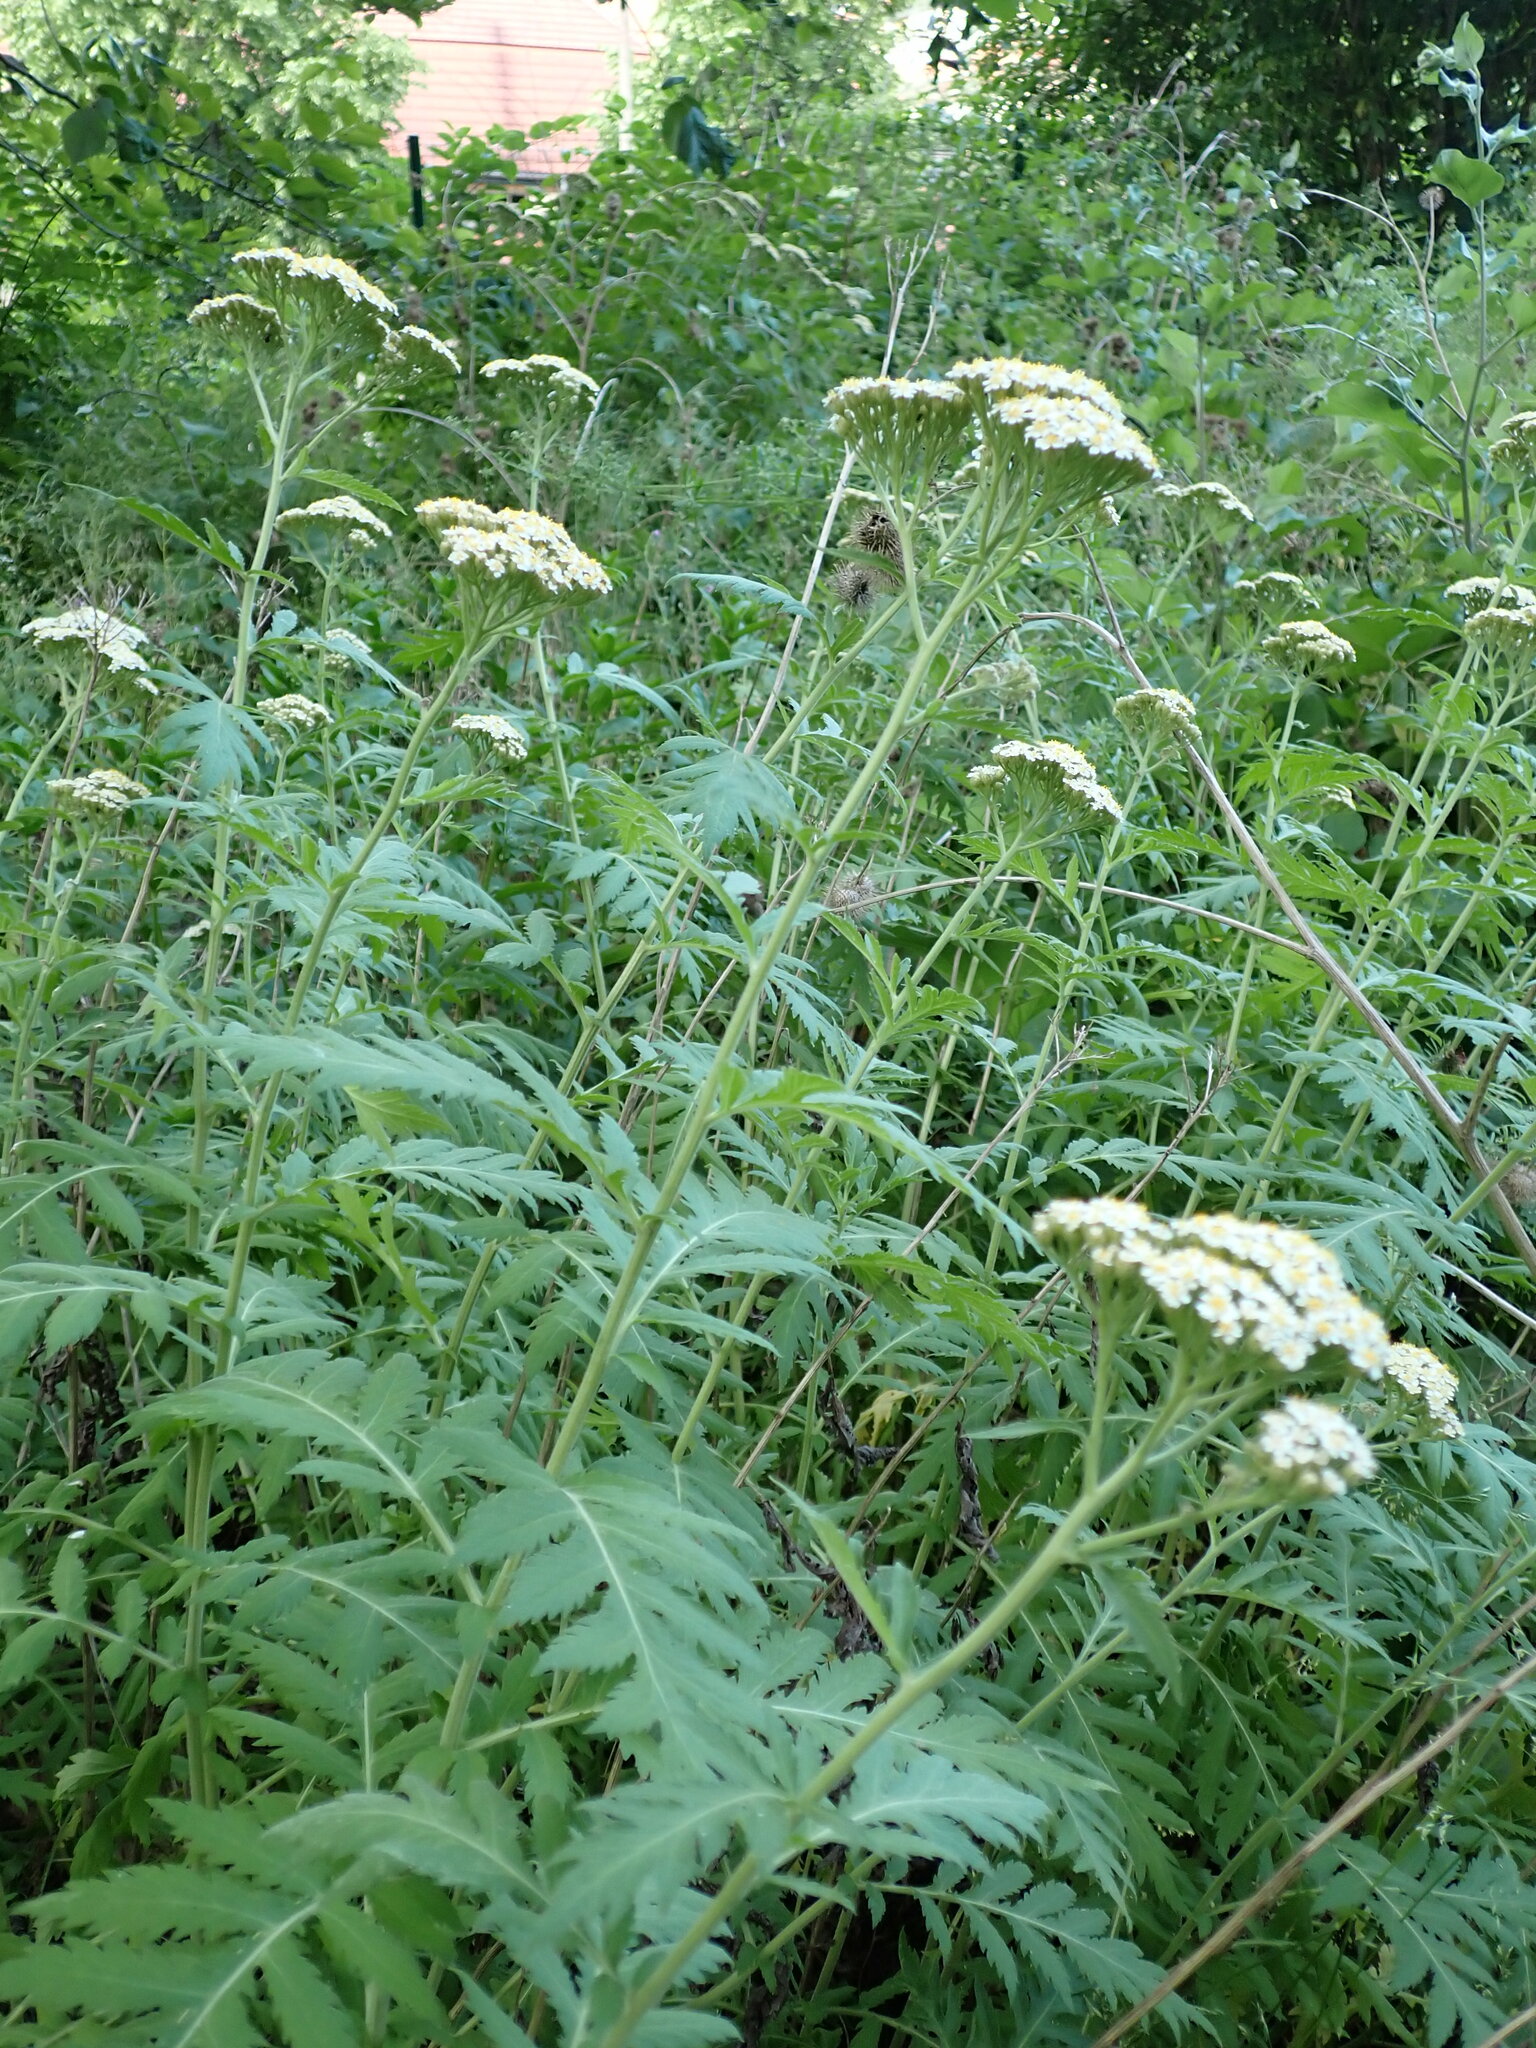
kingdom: Plantae
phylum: Tracheophyta
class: Magnoliopsida
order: Asterales
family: Asteraceae
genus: Tanacetum
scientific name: Tanacetum macrophyllum
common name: Rayed tansy
